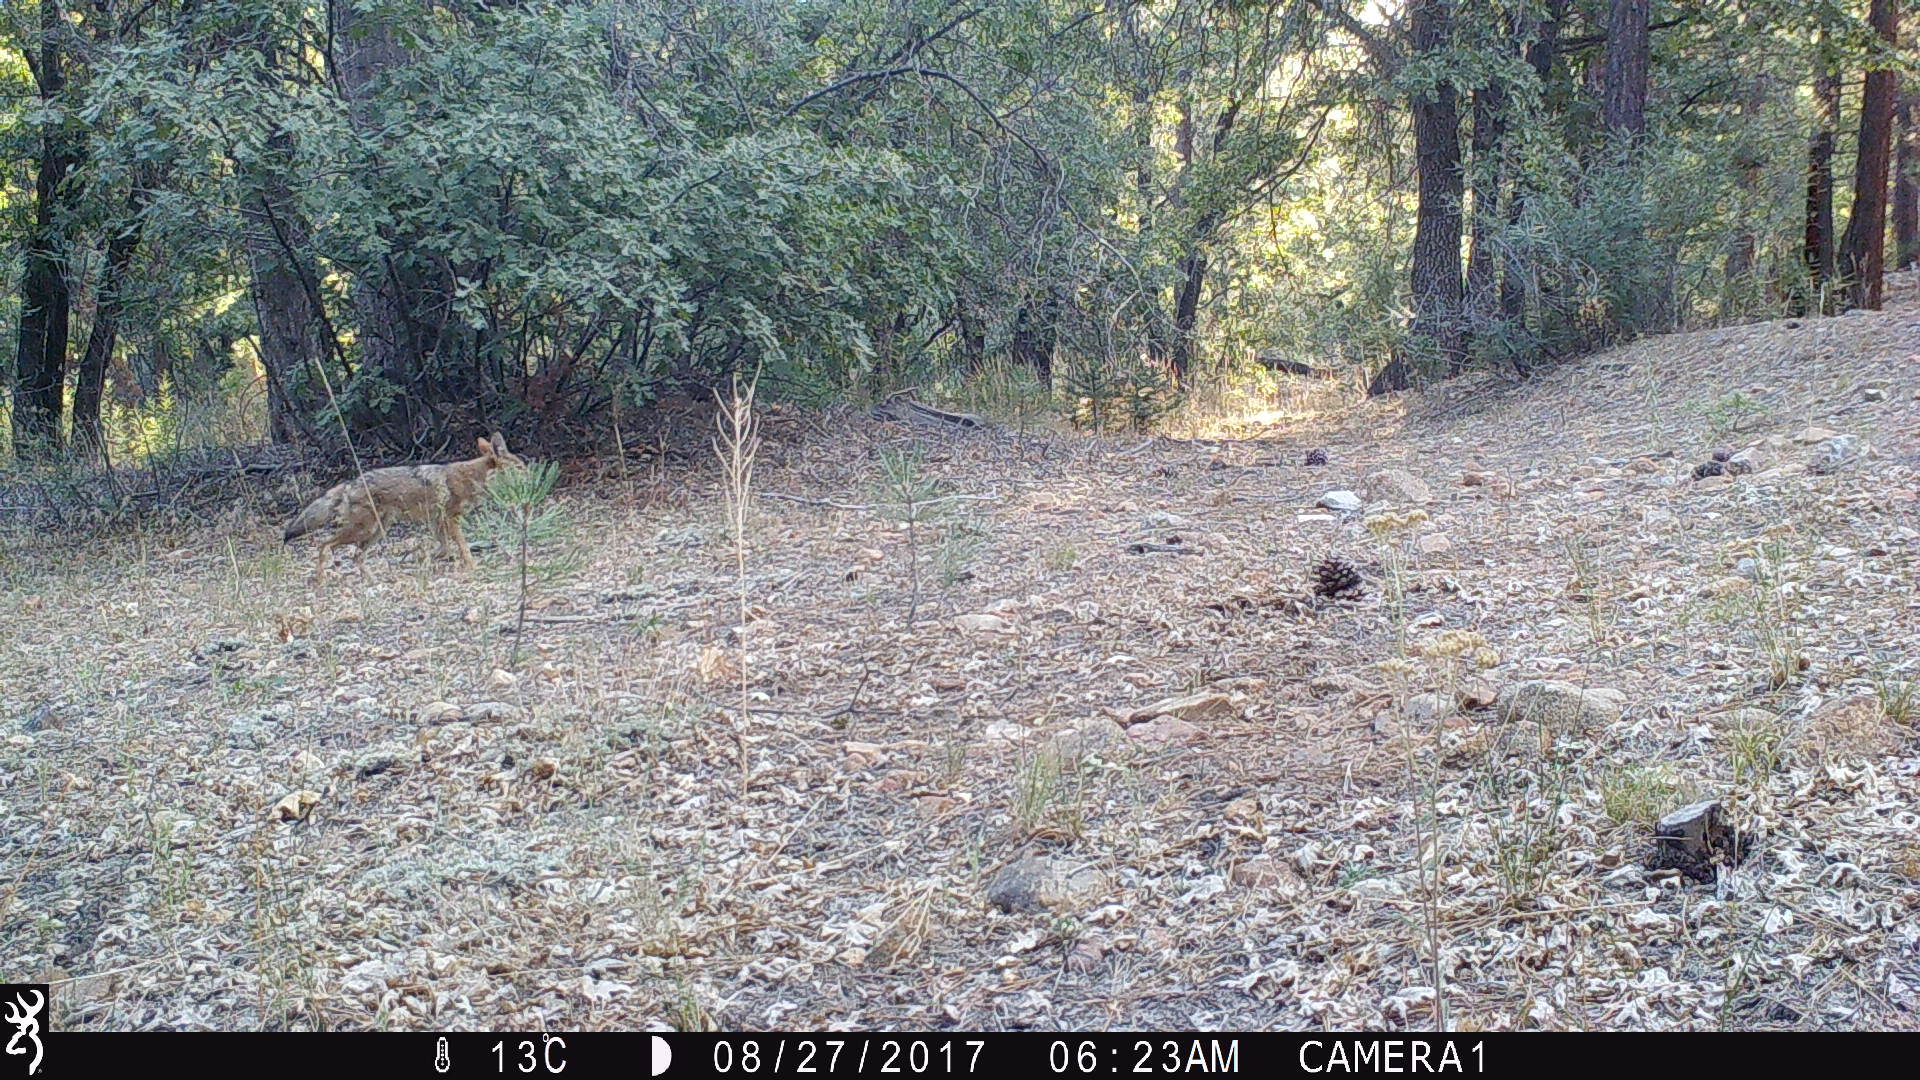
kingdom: Animalia
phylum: Chordata
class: Mammalia
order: Carnivora
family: Canidae
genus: Canis
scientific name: Canis latrans
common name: Coyote
